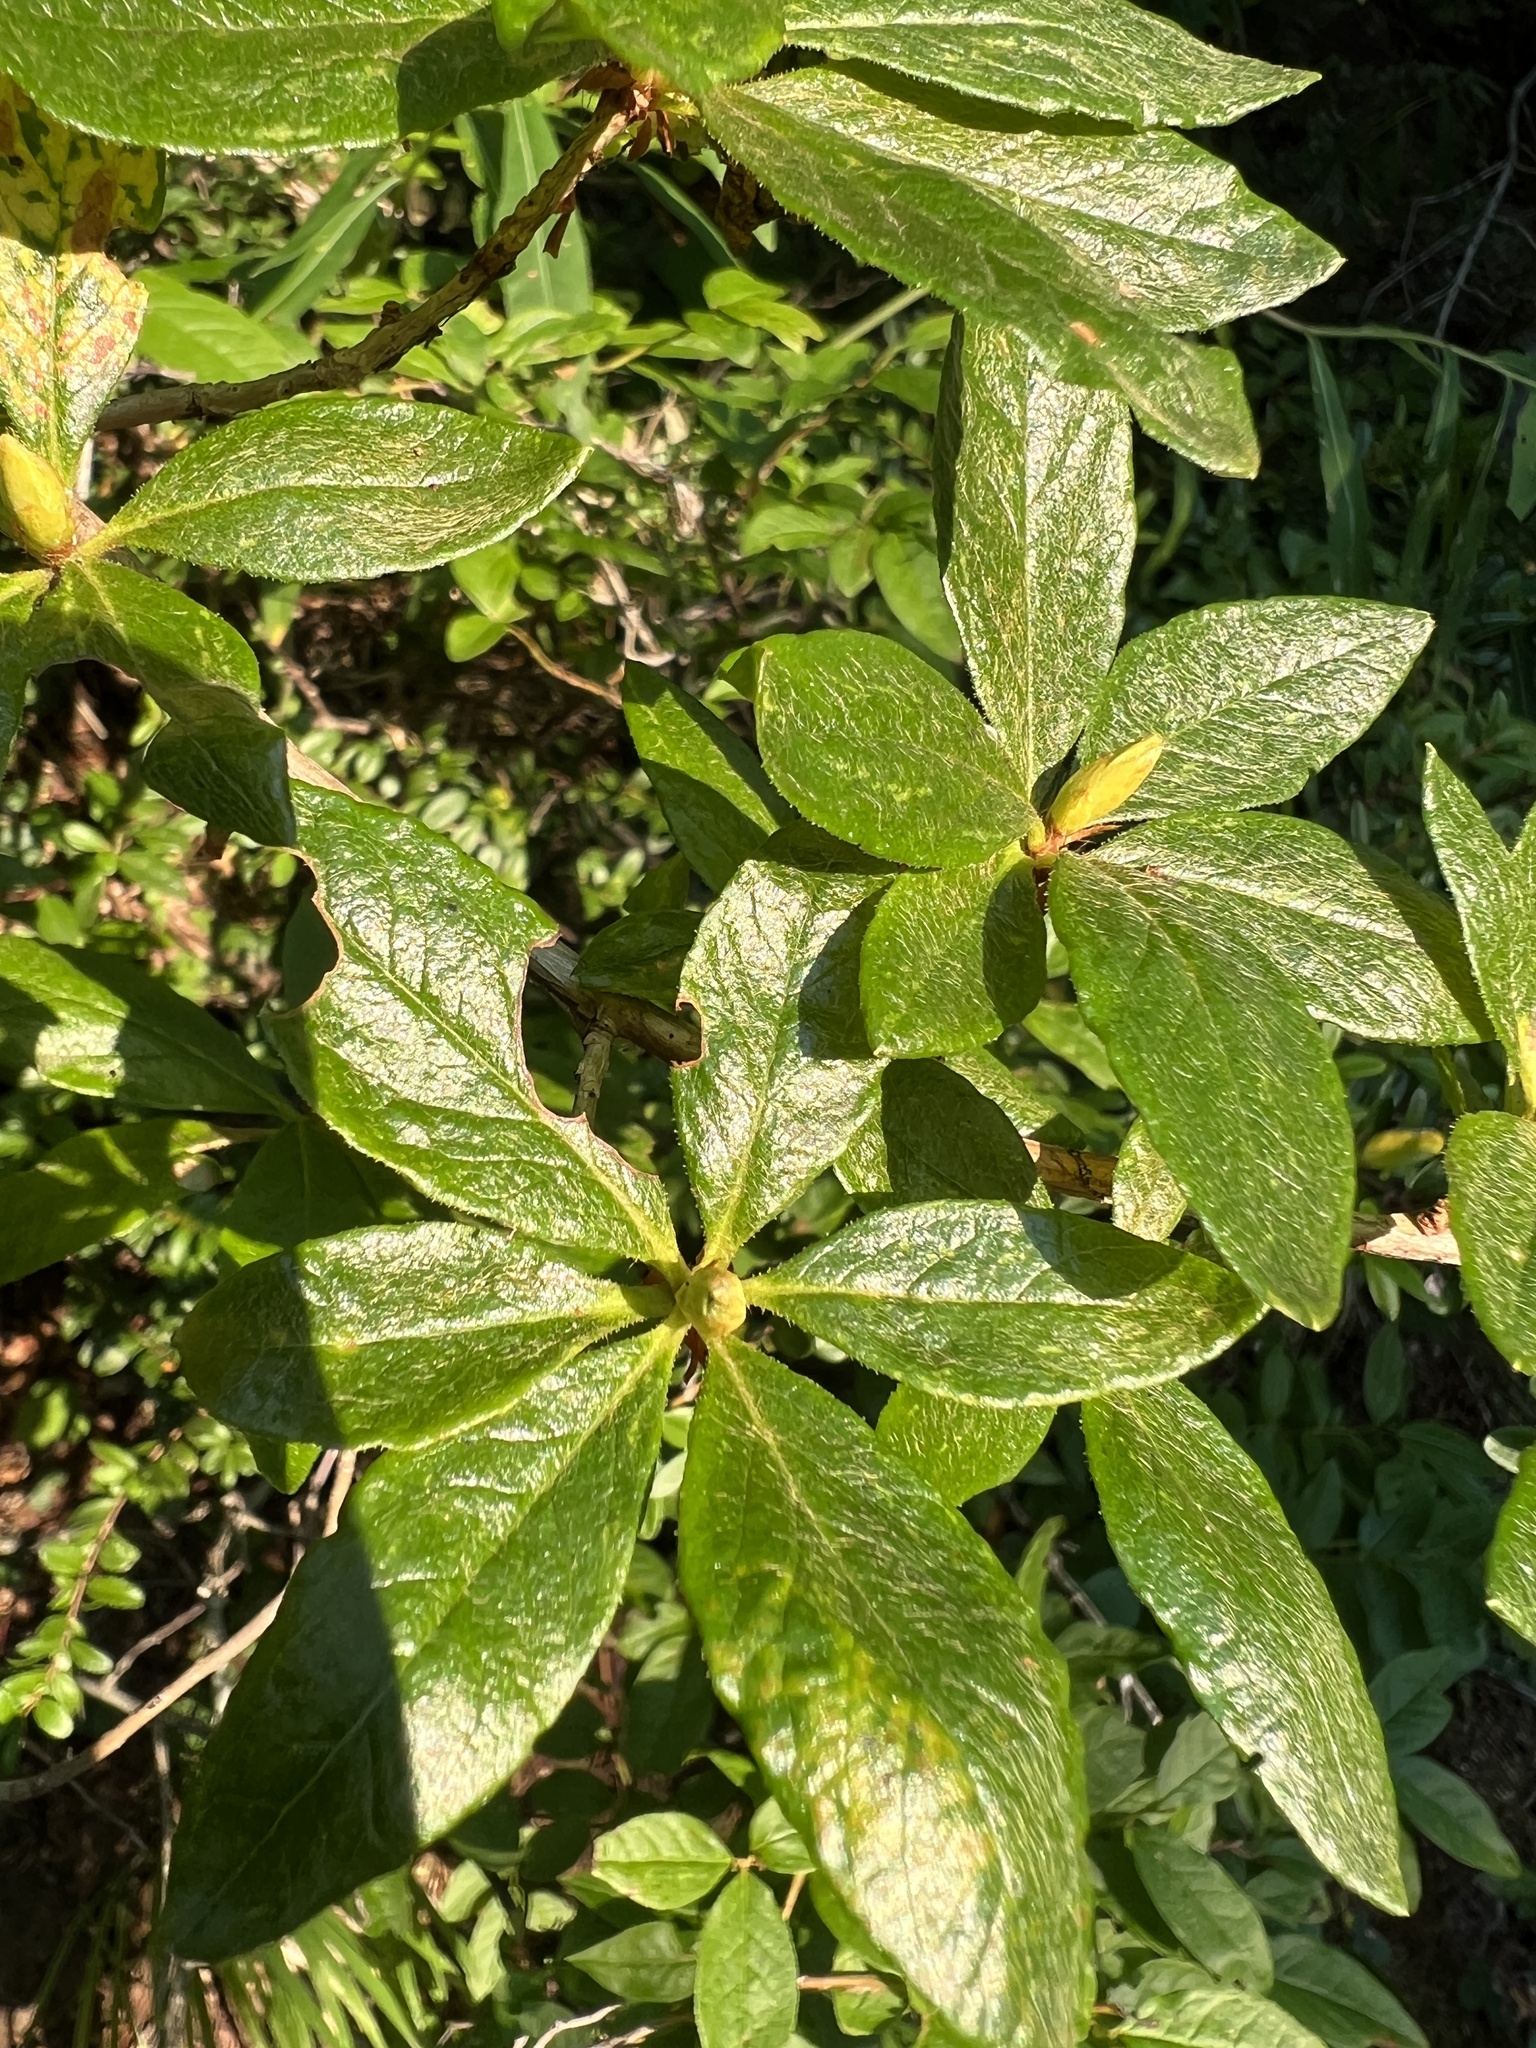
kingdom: Plantae
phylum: Tracheophyta
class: Magnoliopsida
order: Ericales
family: Ericaceae
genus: Rhododendron
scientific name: Rhododendron albiflorum
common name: White rhododendron
